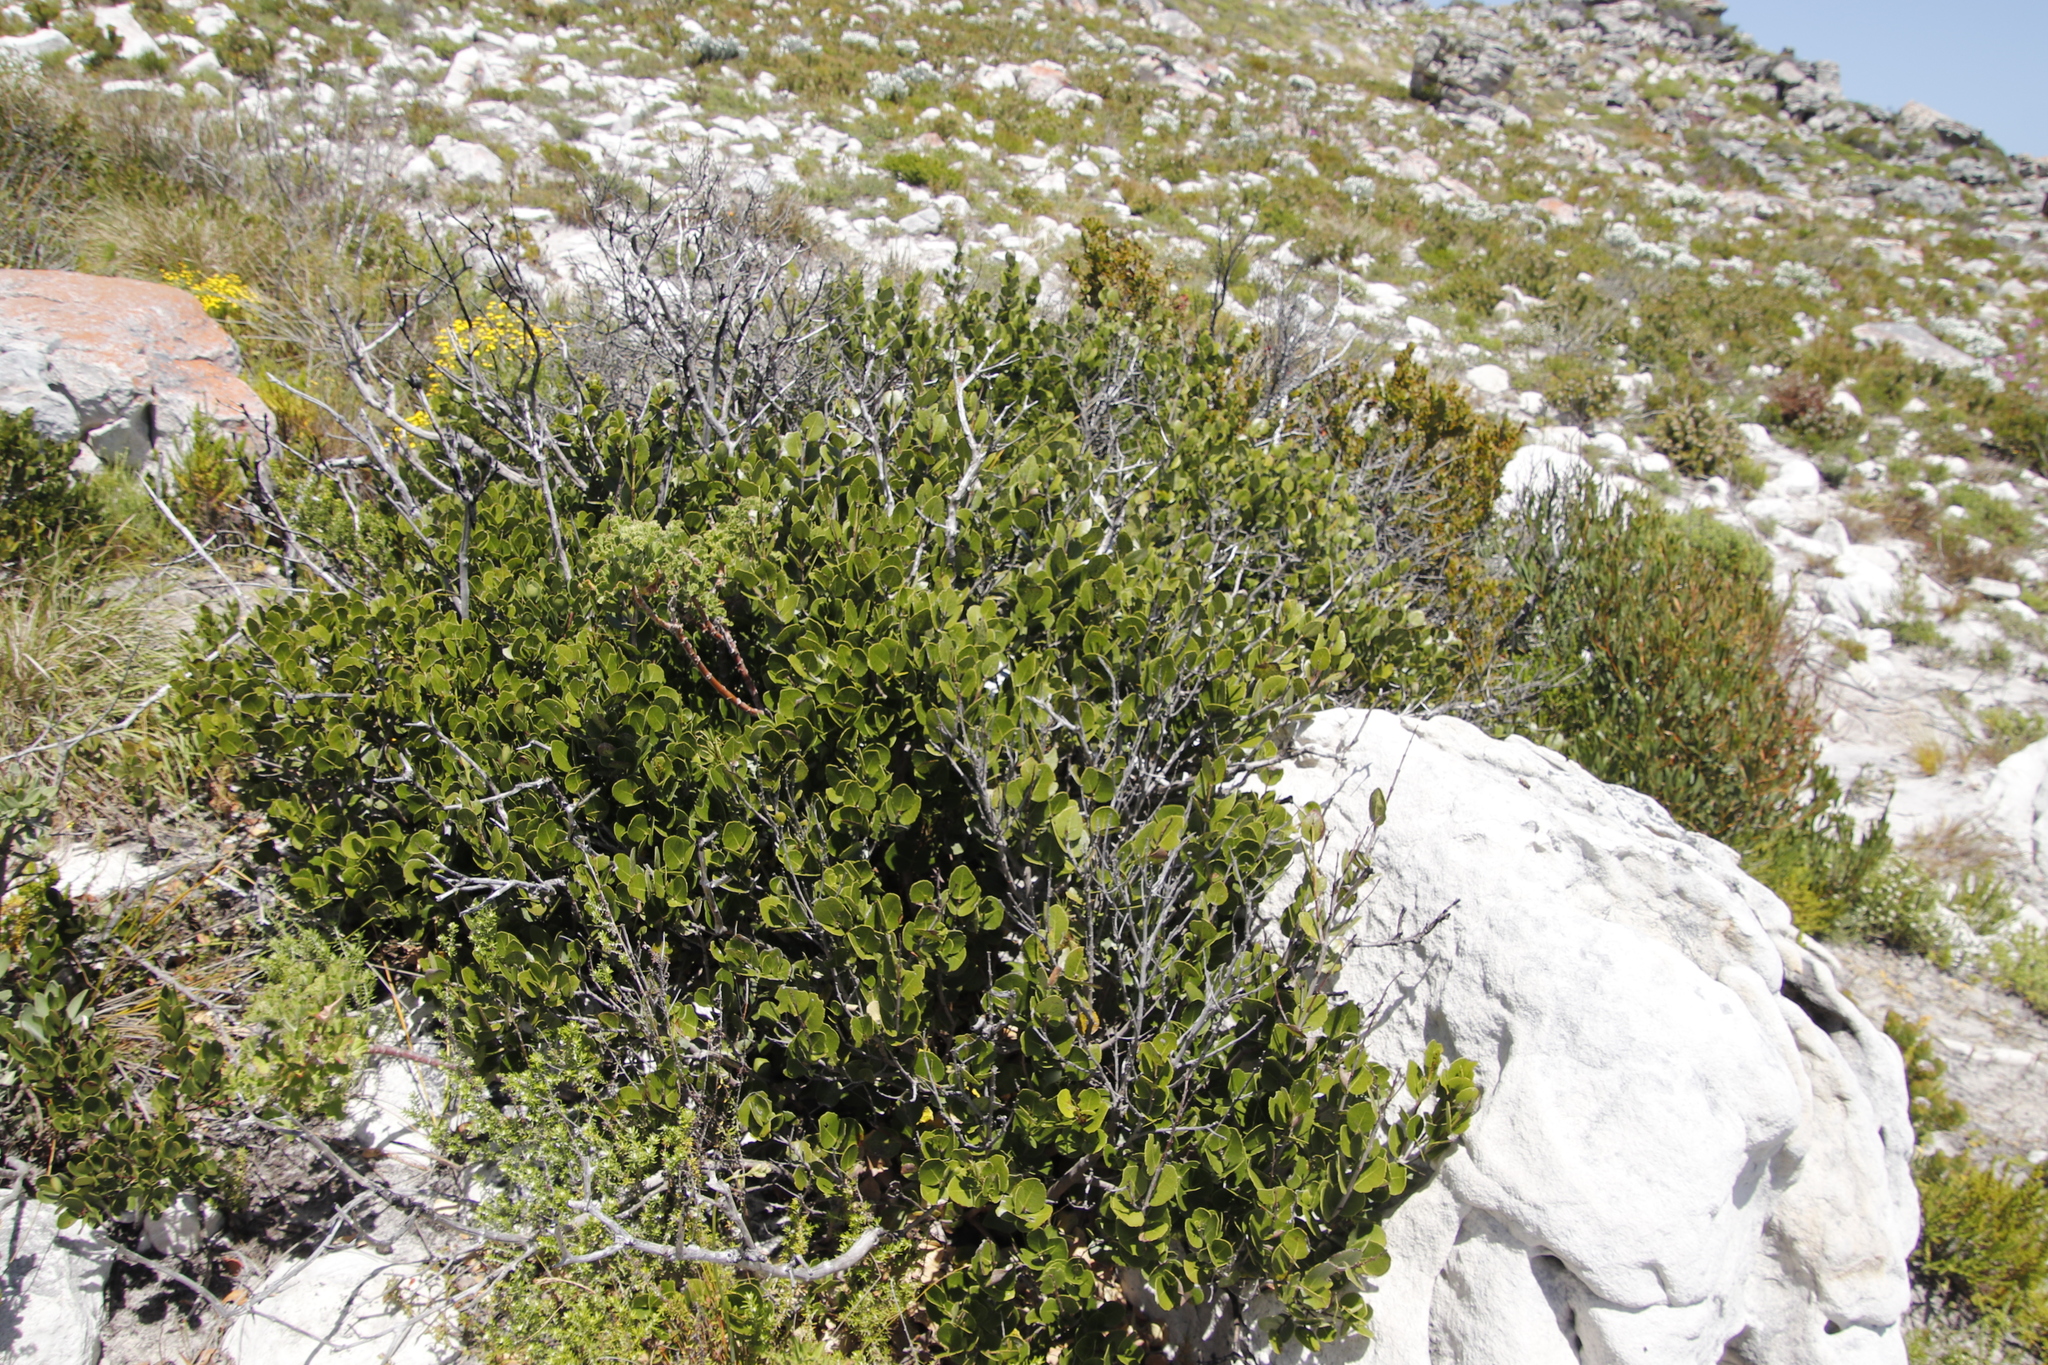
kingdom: Plantae
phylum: Tracheophyta
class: Magnoliopsida
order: Celastrales
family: Celastraceae
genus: Cassine
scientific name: Cassine peragua
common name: Cape saffron
